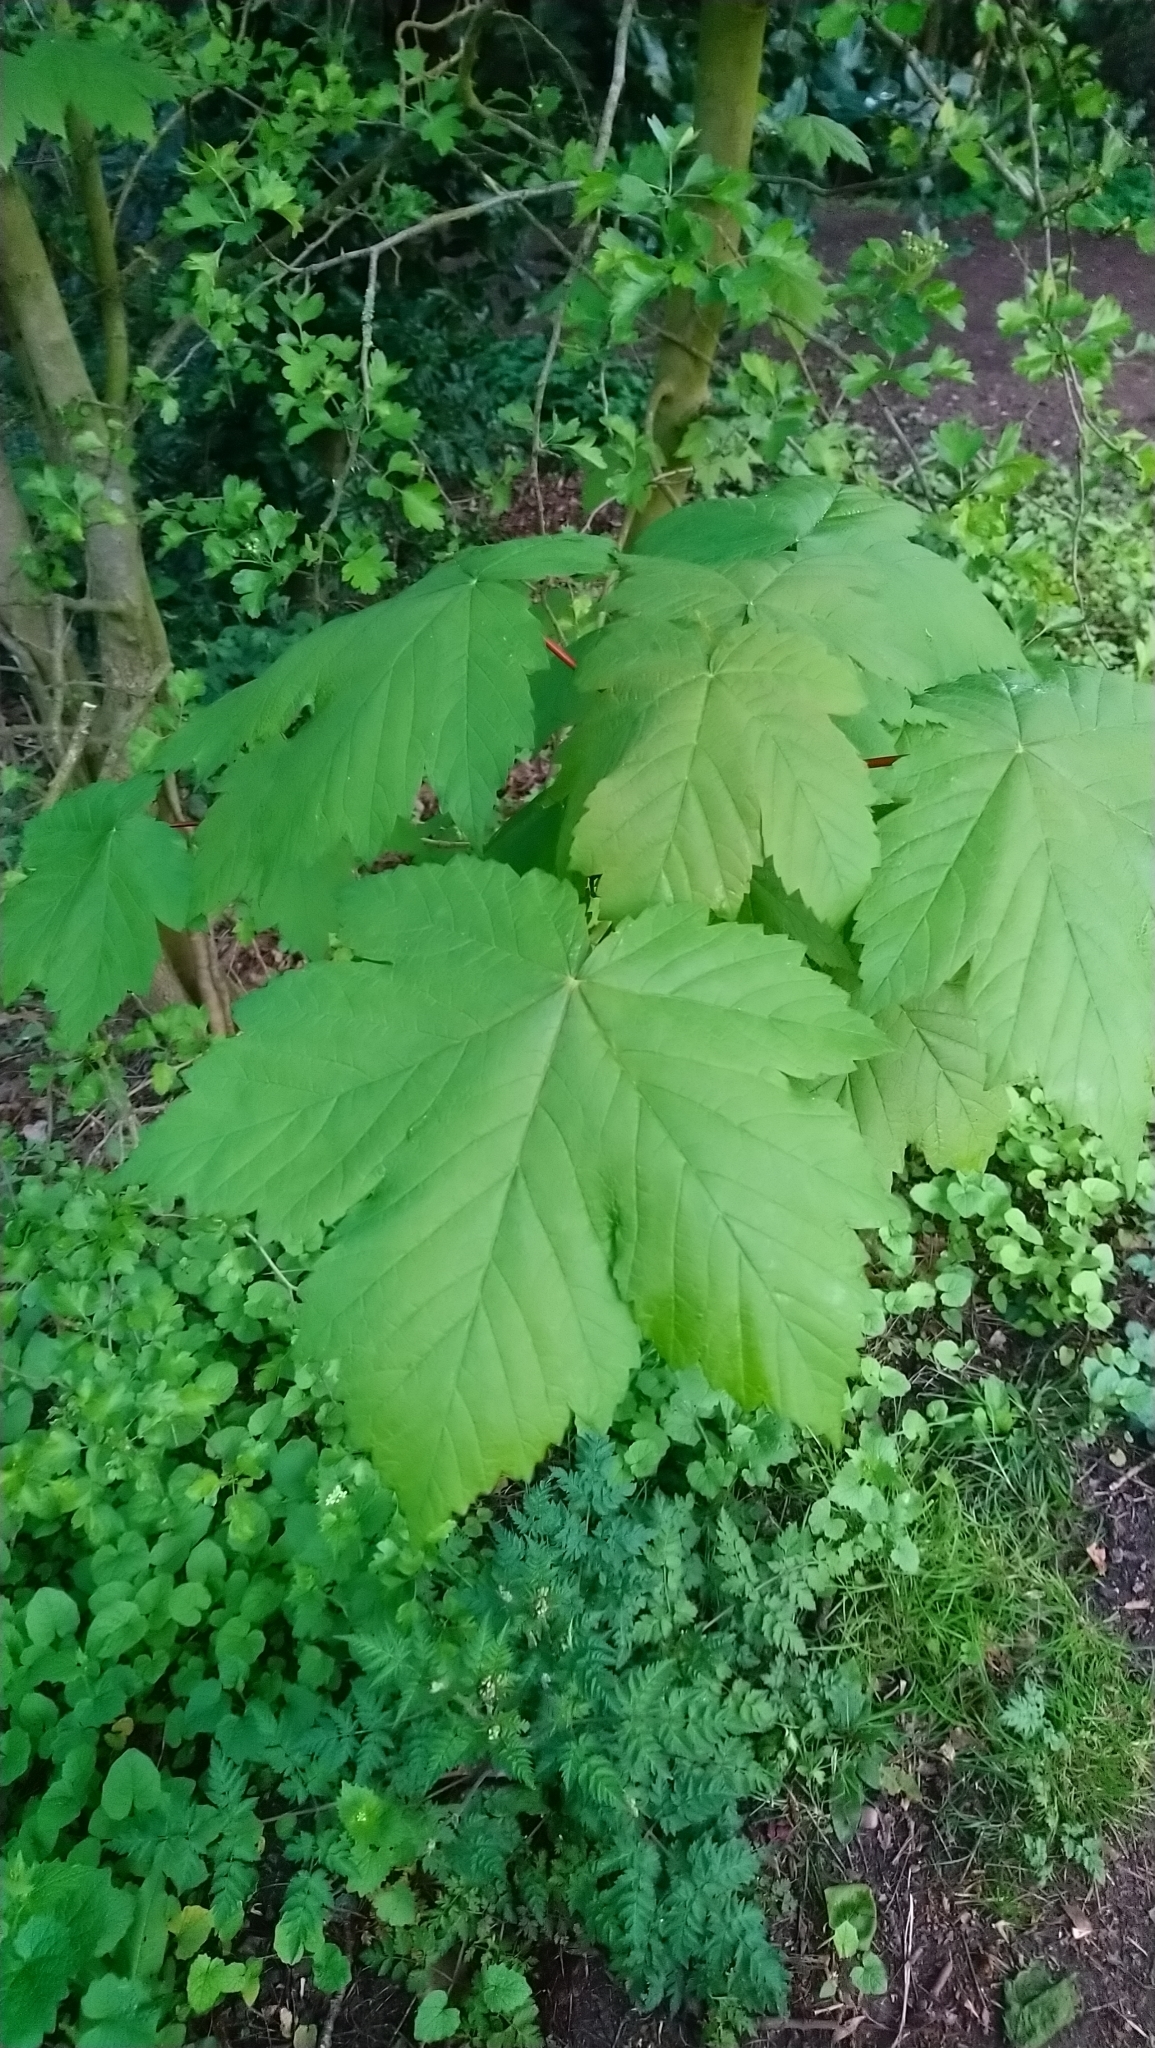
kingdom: Plantae
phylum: Tracheophyta
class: Magnoliopsida
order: Sapindales
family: Sapindaceae
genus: Acer
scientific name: Acer pseudoplatanus
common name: Sycamore
